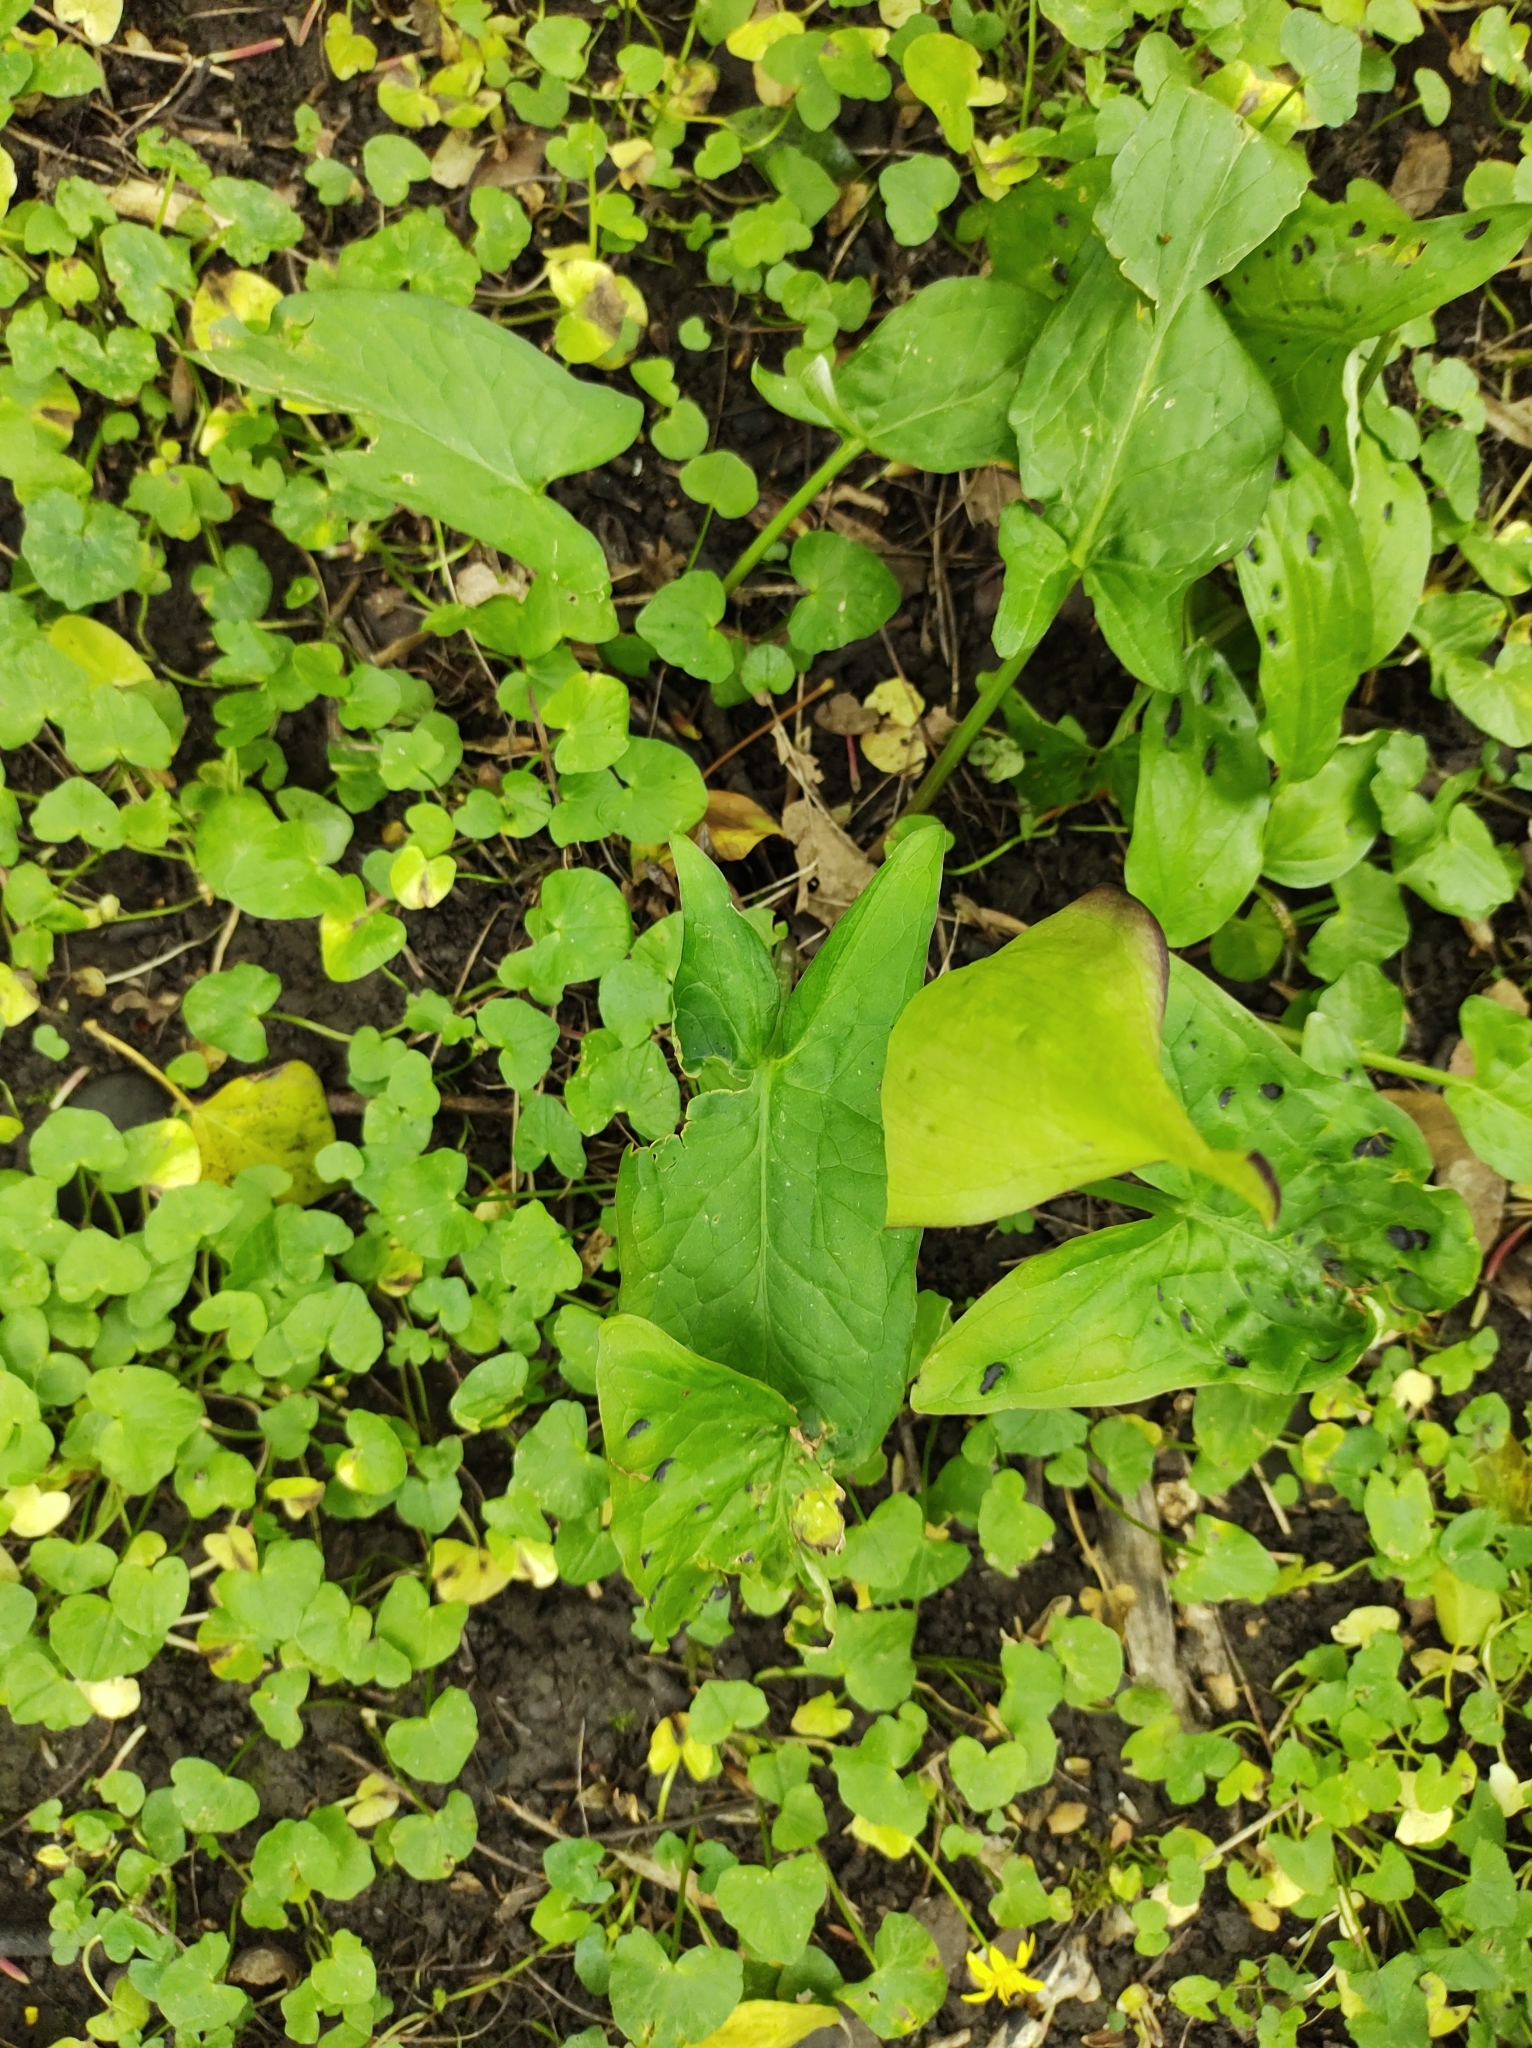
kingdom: Plantae
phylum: Tracheophyta
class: Liliopsida
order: Alismatales
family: Araceae
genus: Arum
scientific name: Arum maculatum
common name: Lords-and-ladies
